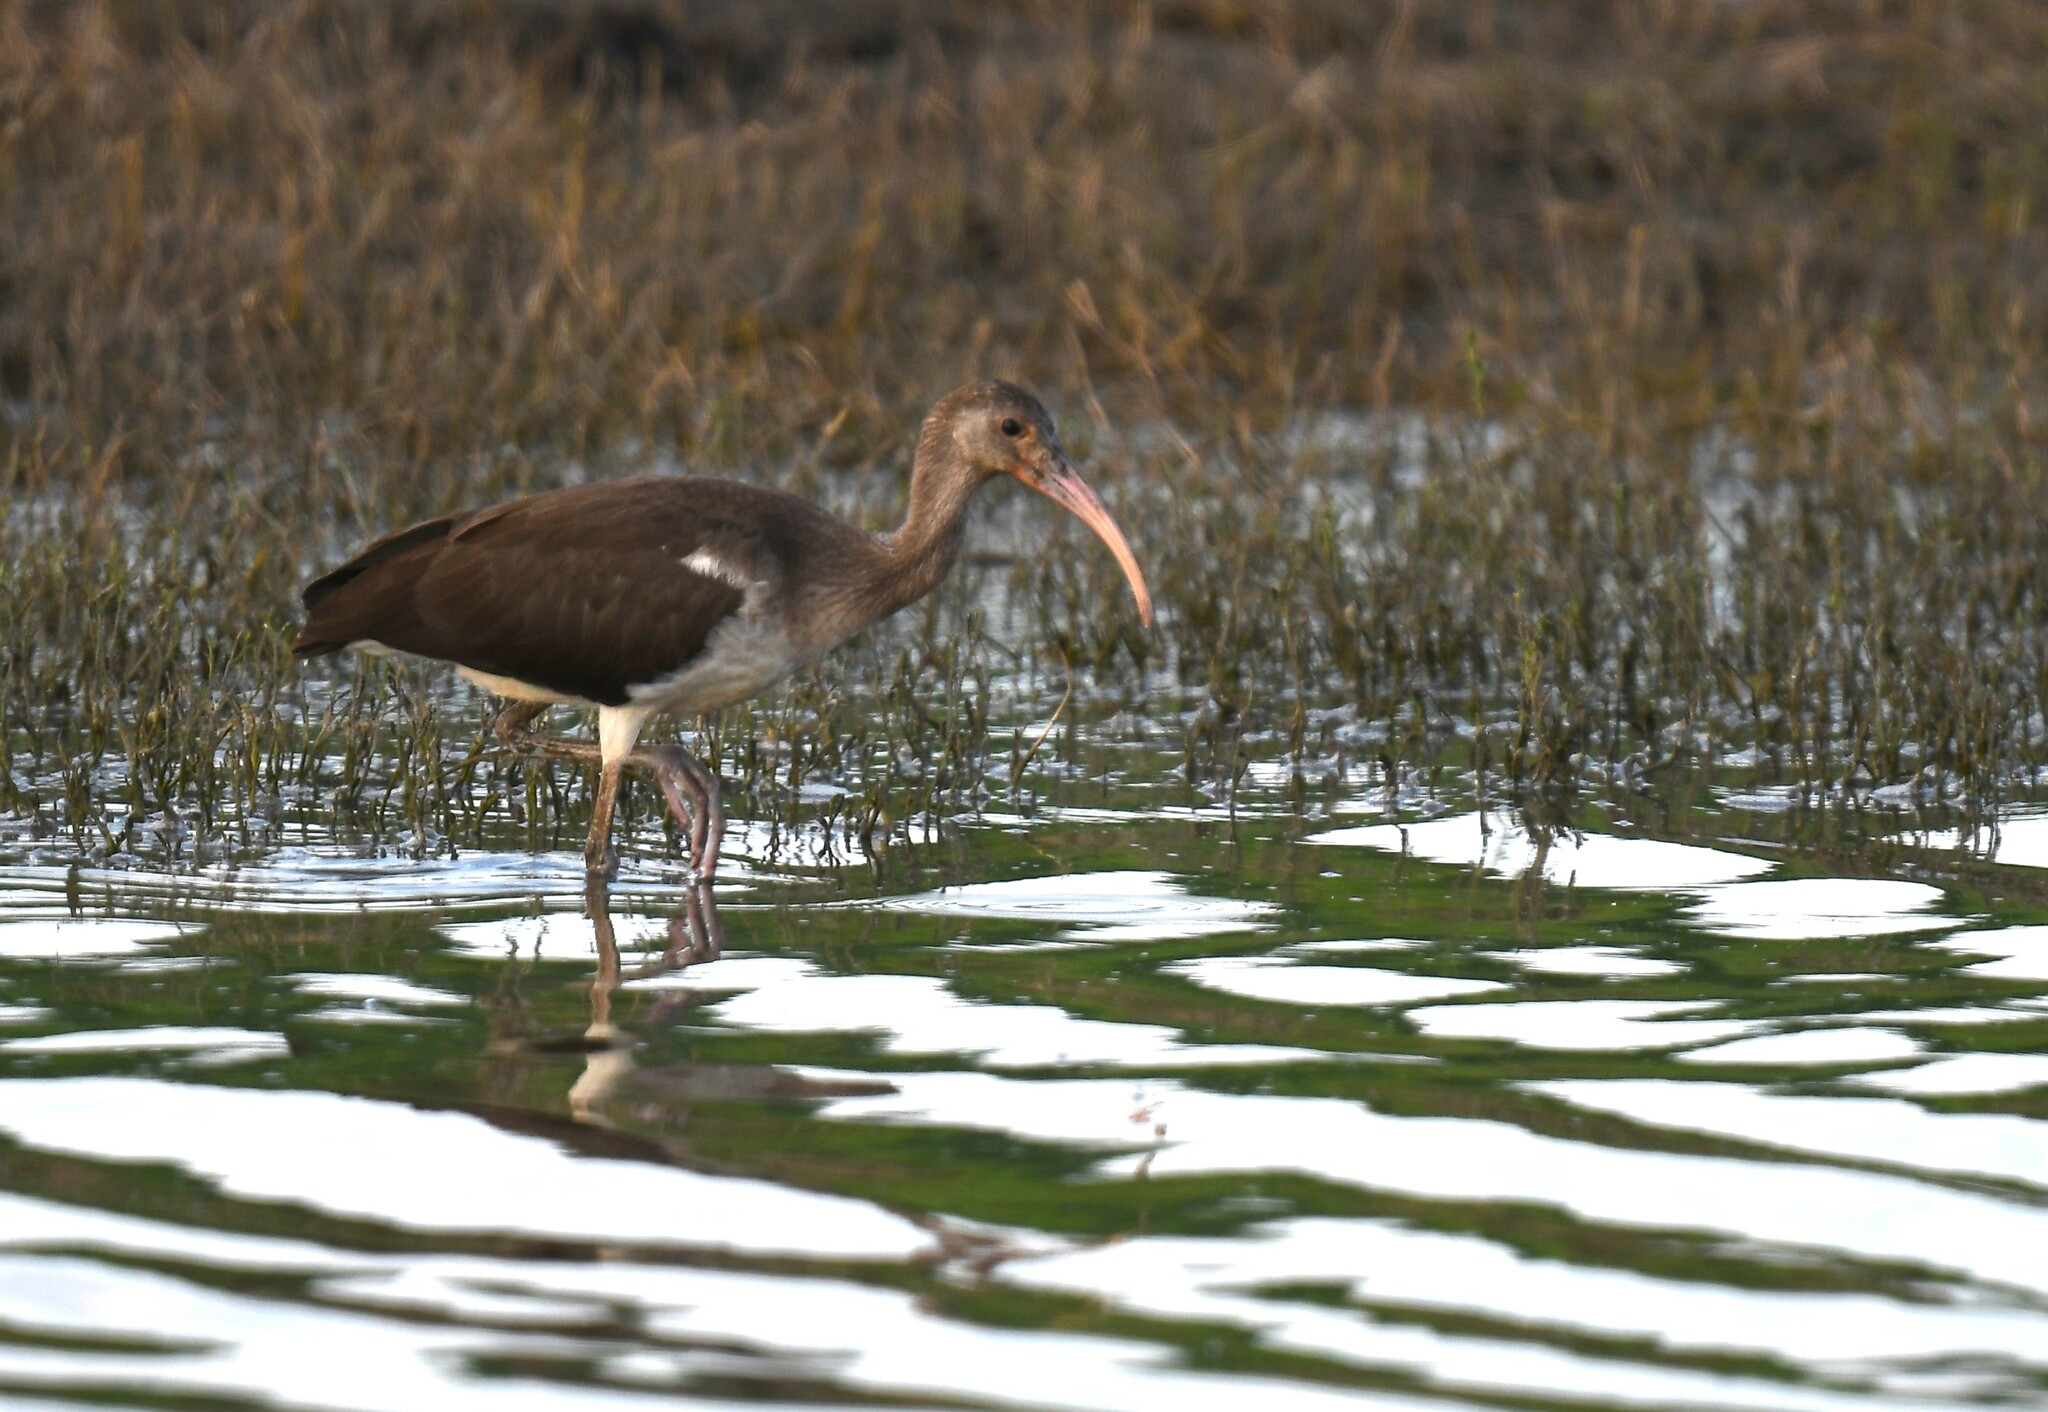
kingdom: Animalia
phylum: Chordata
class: Aves
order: Pelecaniformes
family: Threskiornithidae
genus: Eudocimus
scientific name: Eudocimus albus
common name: White ibis
